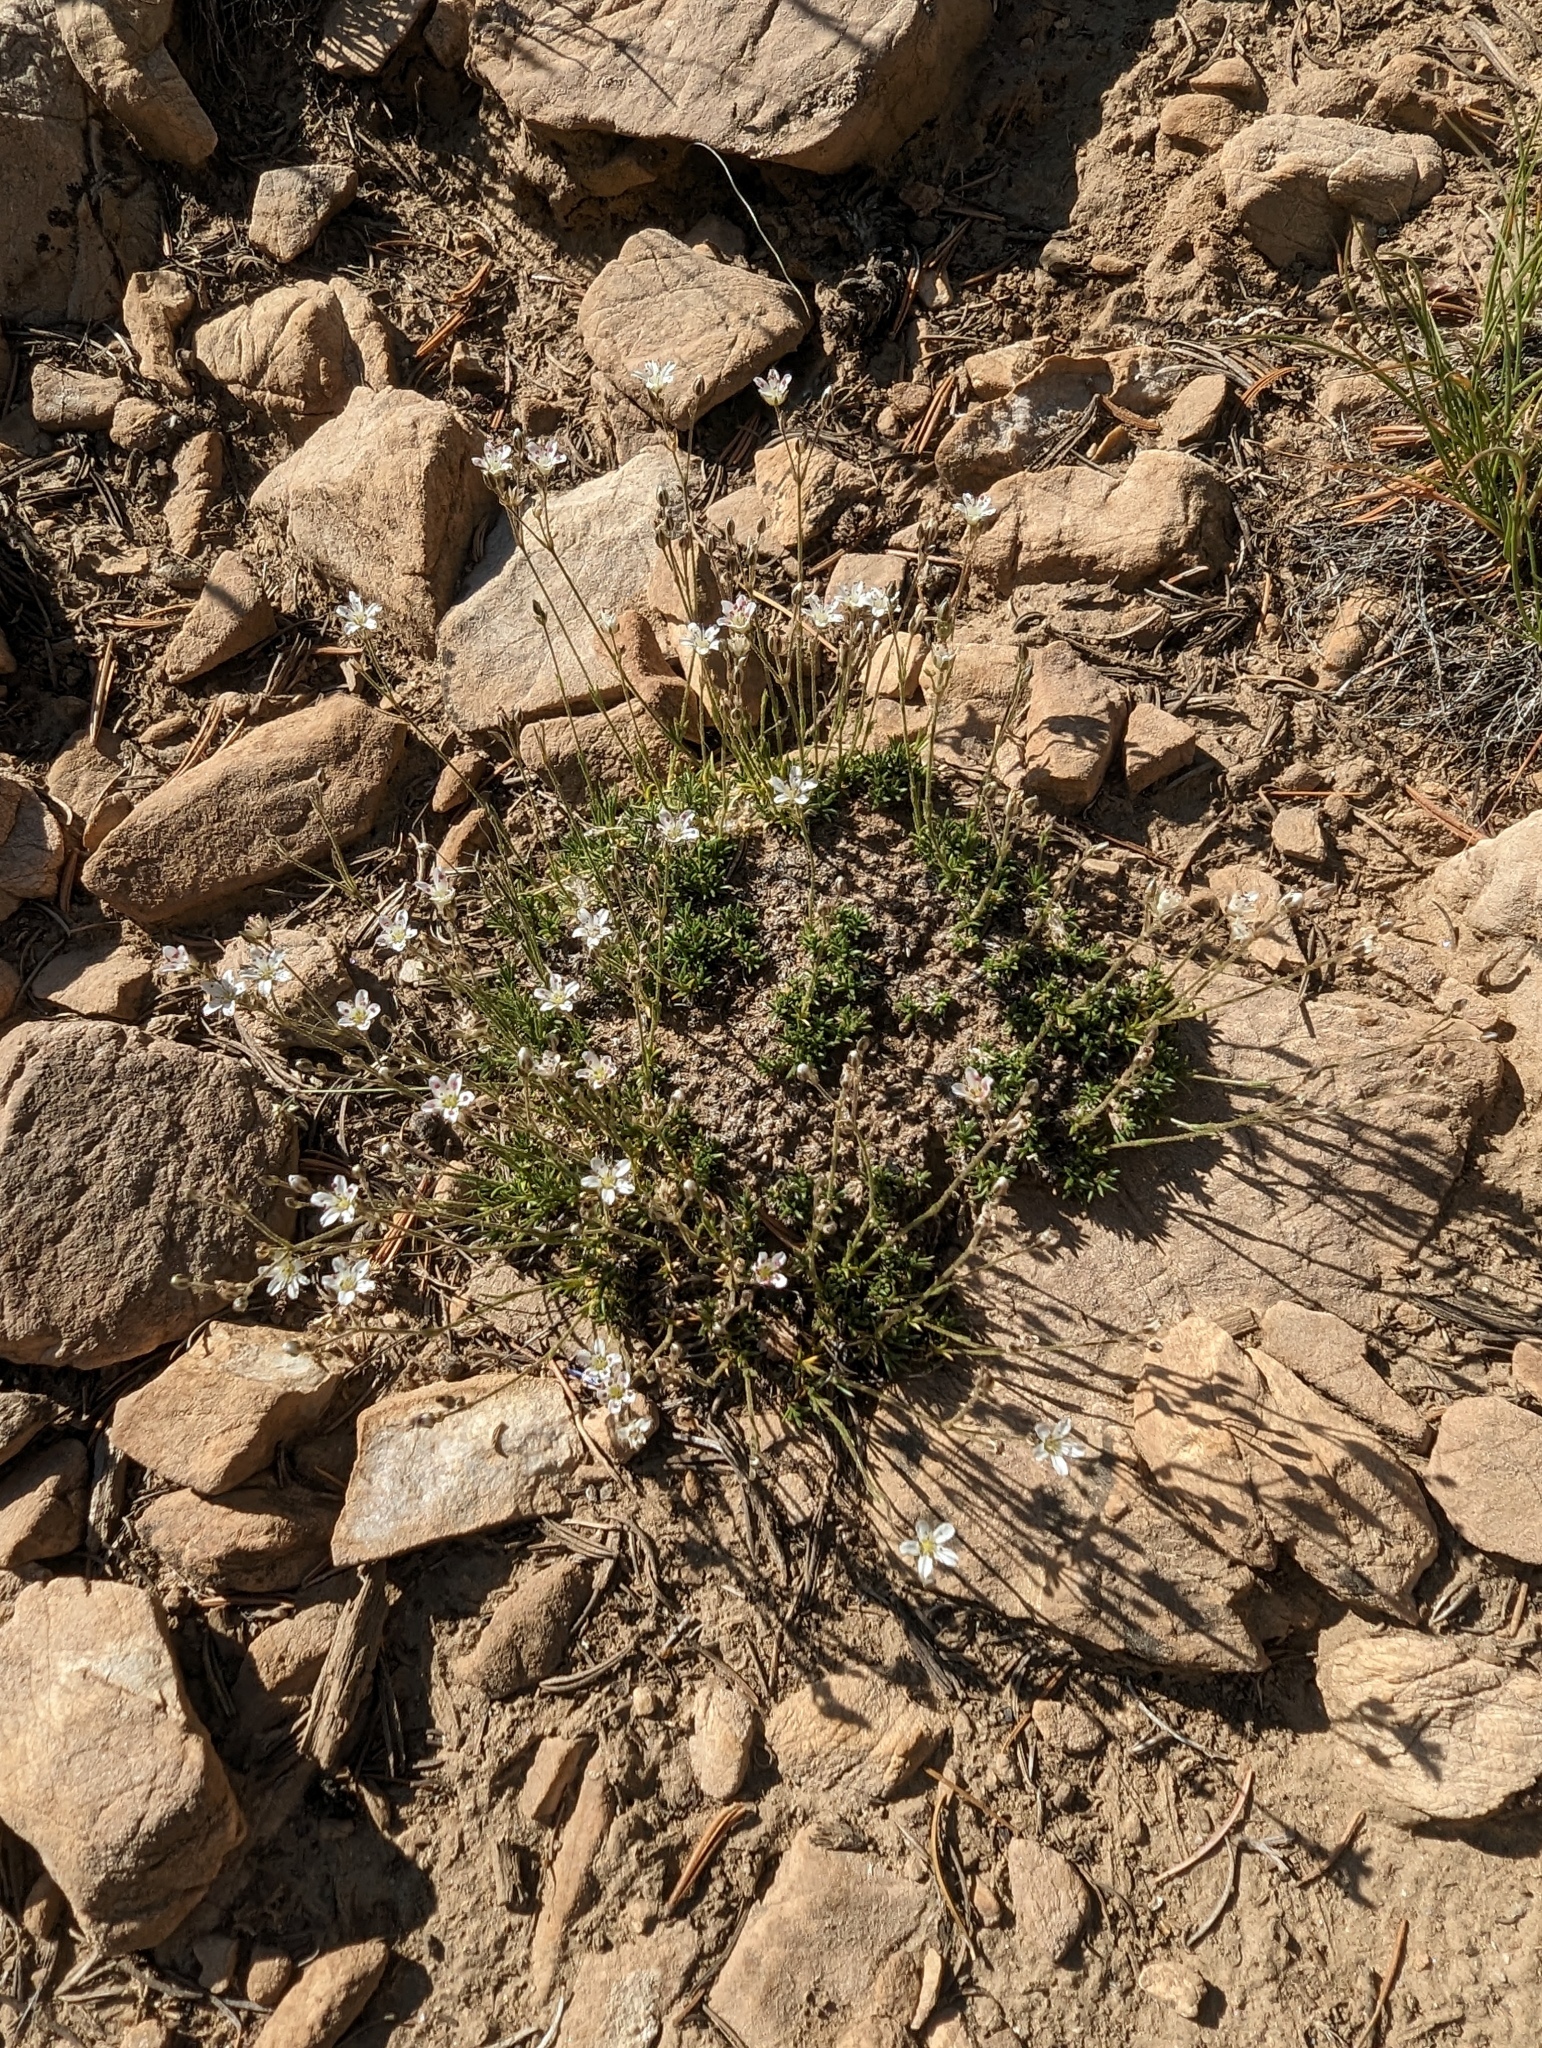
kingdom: Plantae
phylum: Tracheophyta
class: Magnoliopsida
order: Caryophyllales
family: Caryophyllaceae
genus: Eremogone
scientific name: Eremogone kingii
